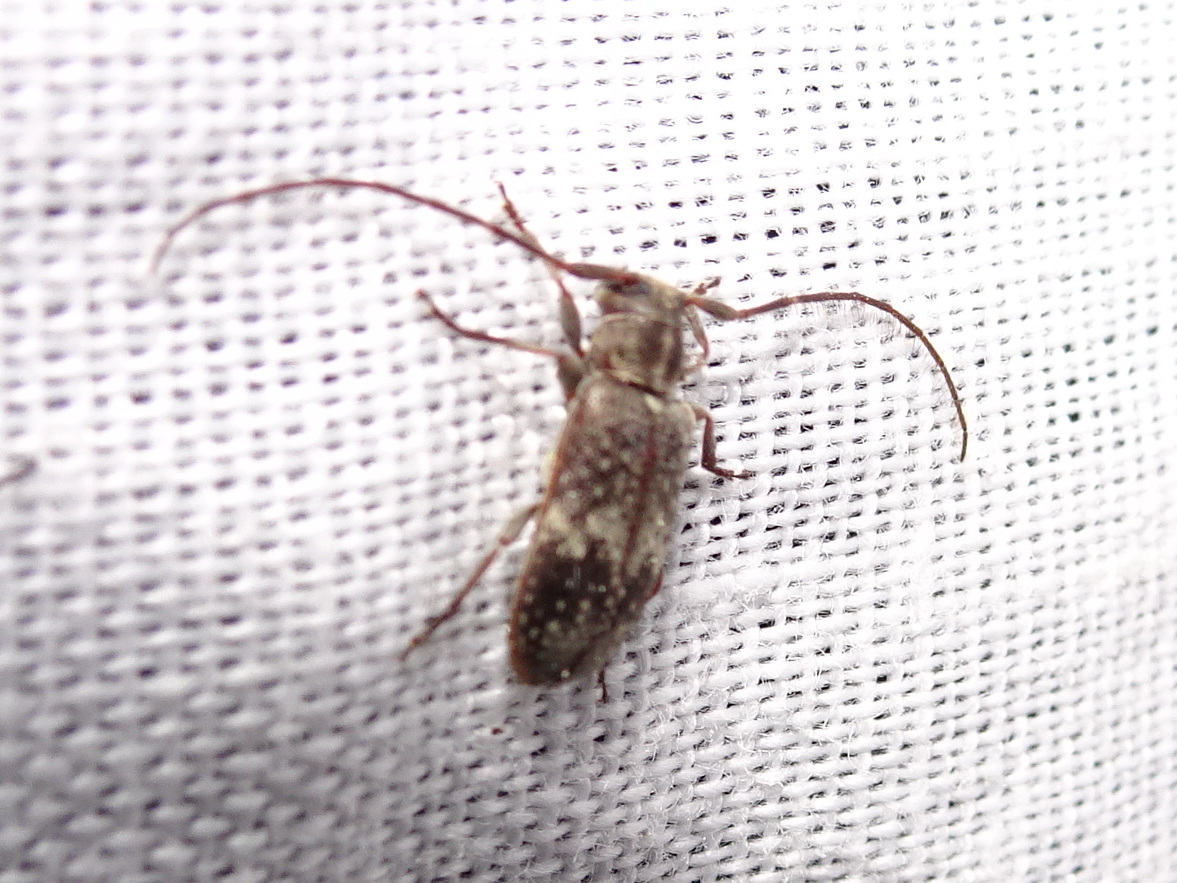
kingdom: Animalia
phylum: Arthropoda
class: Insecta
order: Coleoptera
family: Cerambycidae
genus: Exocentrus
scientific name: Exocentrus adspersus
